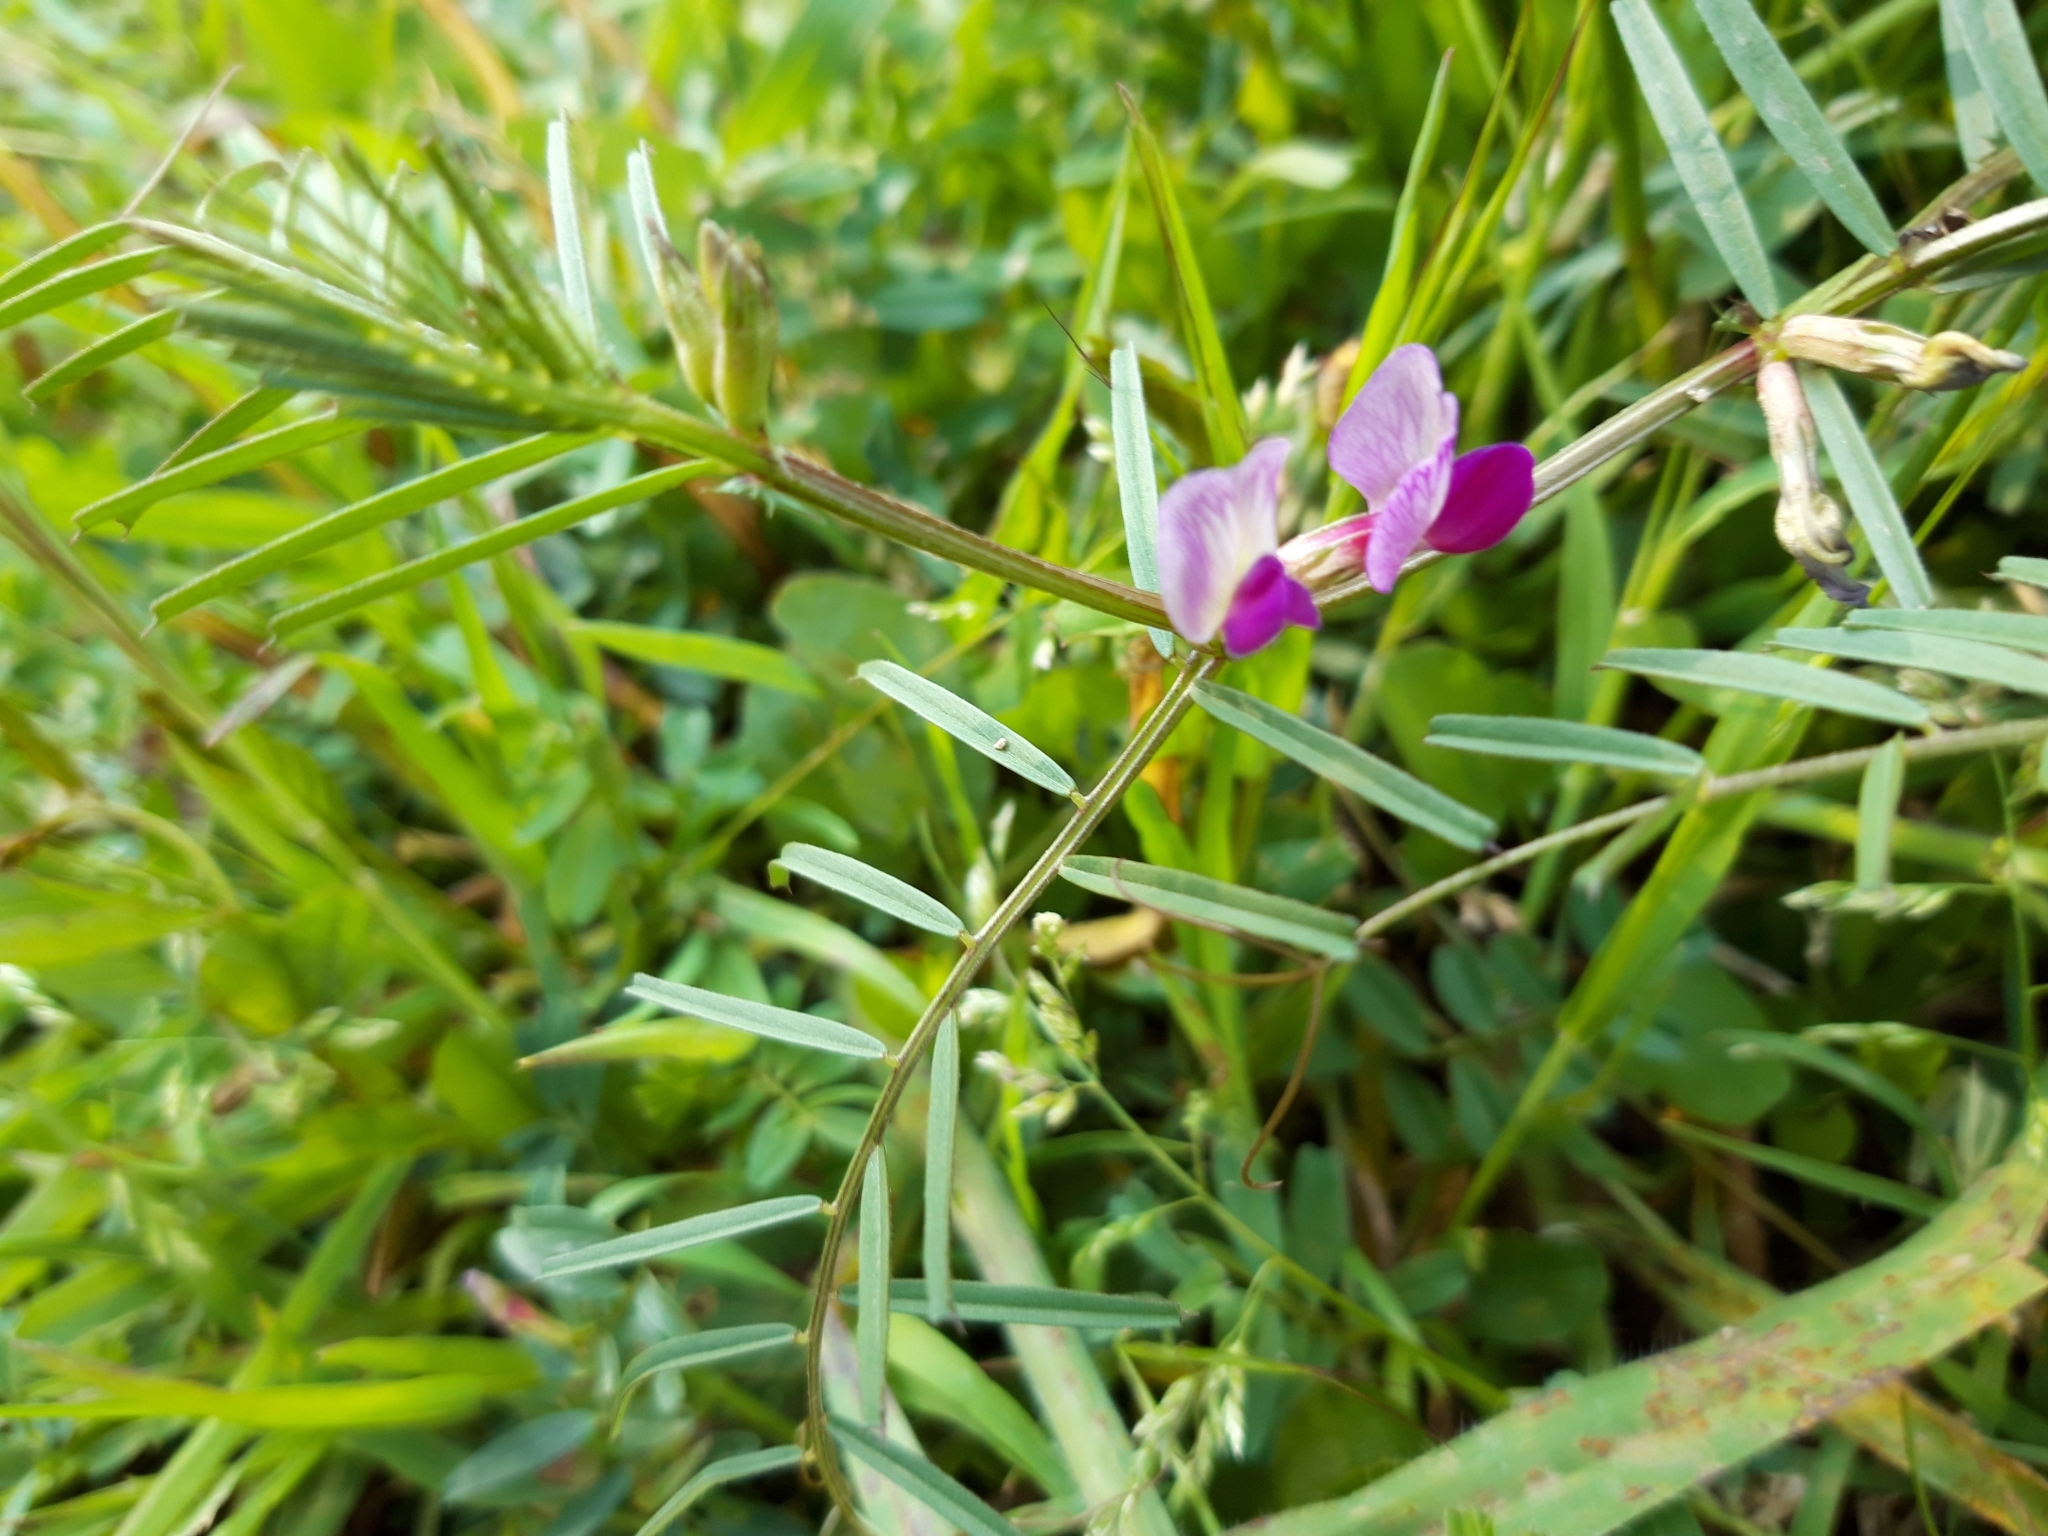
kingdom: Plantae
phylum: Tracheophyta
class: Magnoliopsida
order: Fabales
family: Fabaceae
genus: Vicia
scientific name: Vicia sativa
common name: Garden vetch
